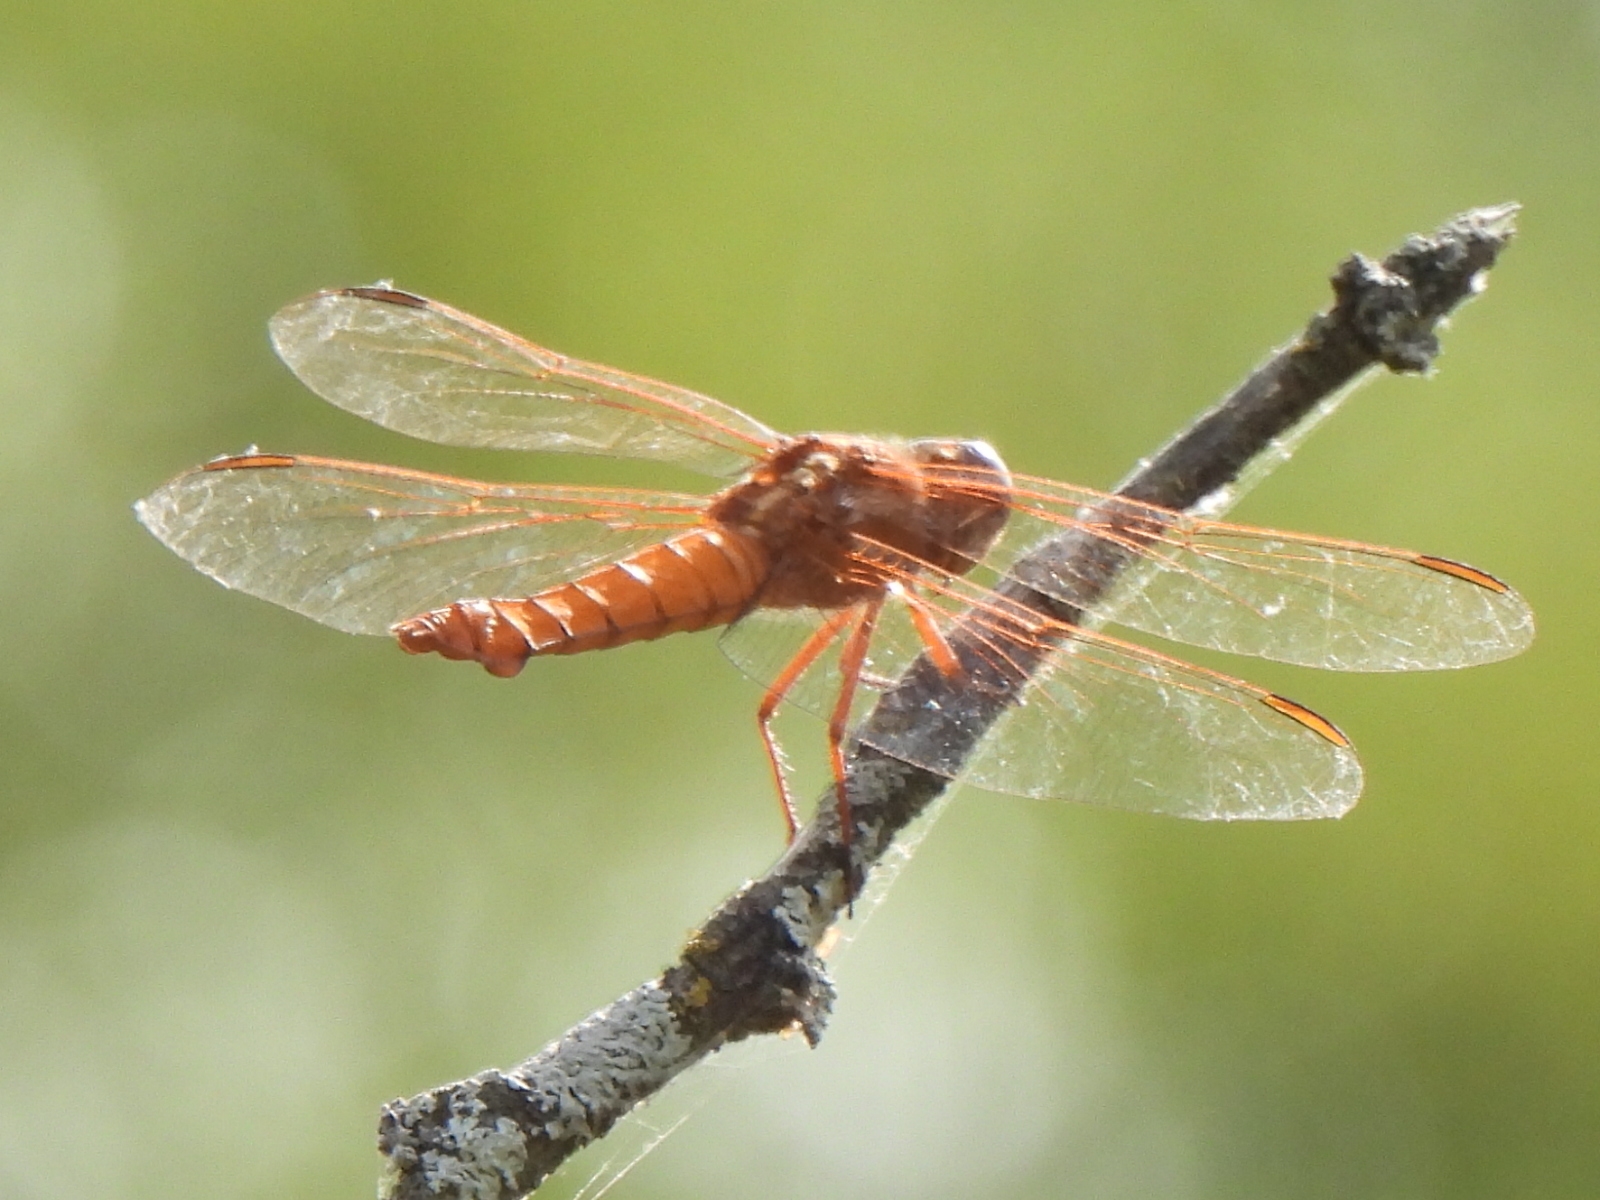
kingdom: Animalia
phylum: Arthropoda
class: Insecta
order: Odonata
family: Libellulidae
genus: Libellula
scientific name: Libellula croceipennis
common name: Neon skimmer
